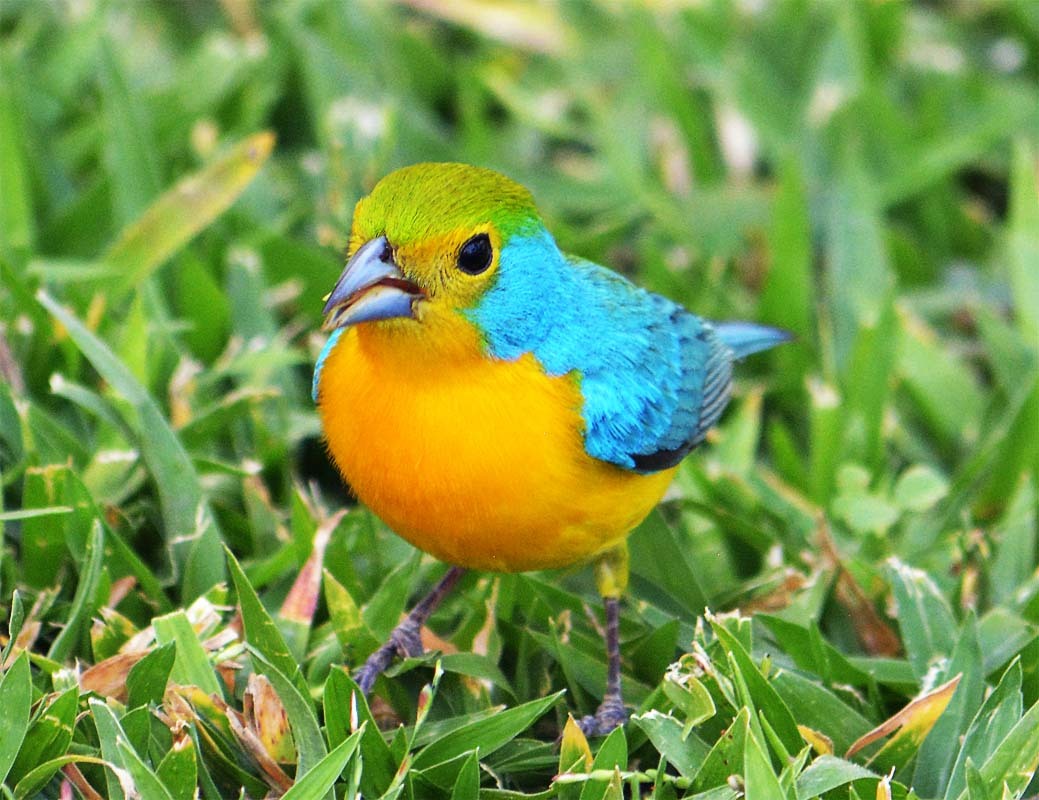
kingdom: Animalia
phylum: Chordata
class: Aves
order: Passeriformes
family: Cardinalidae
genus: Passerina
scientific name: Passerina leclancherii
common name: Orange-breasted bunting
